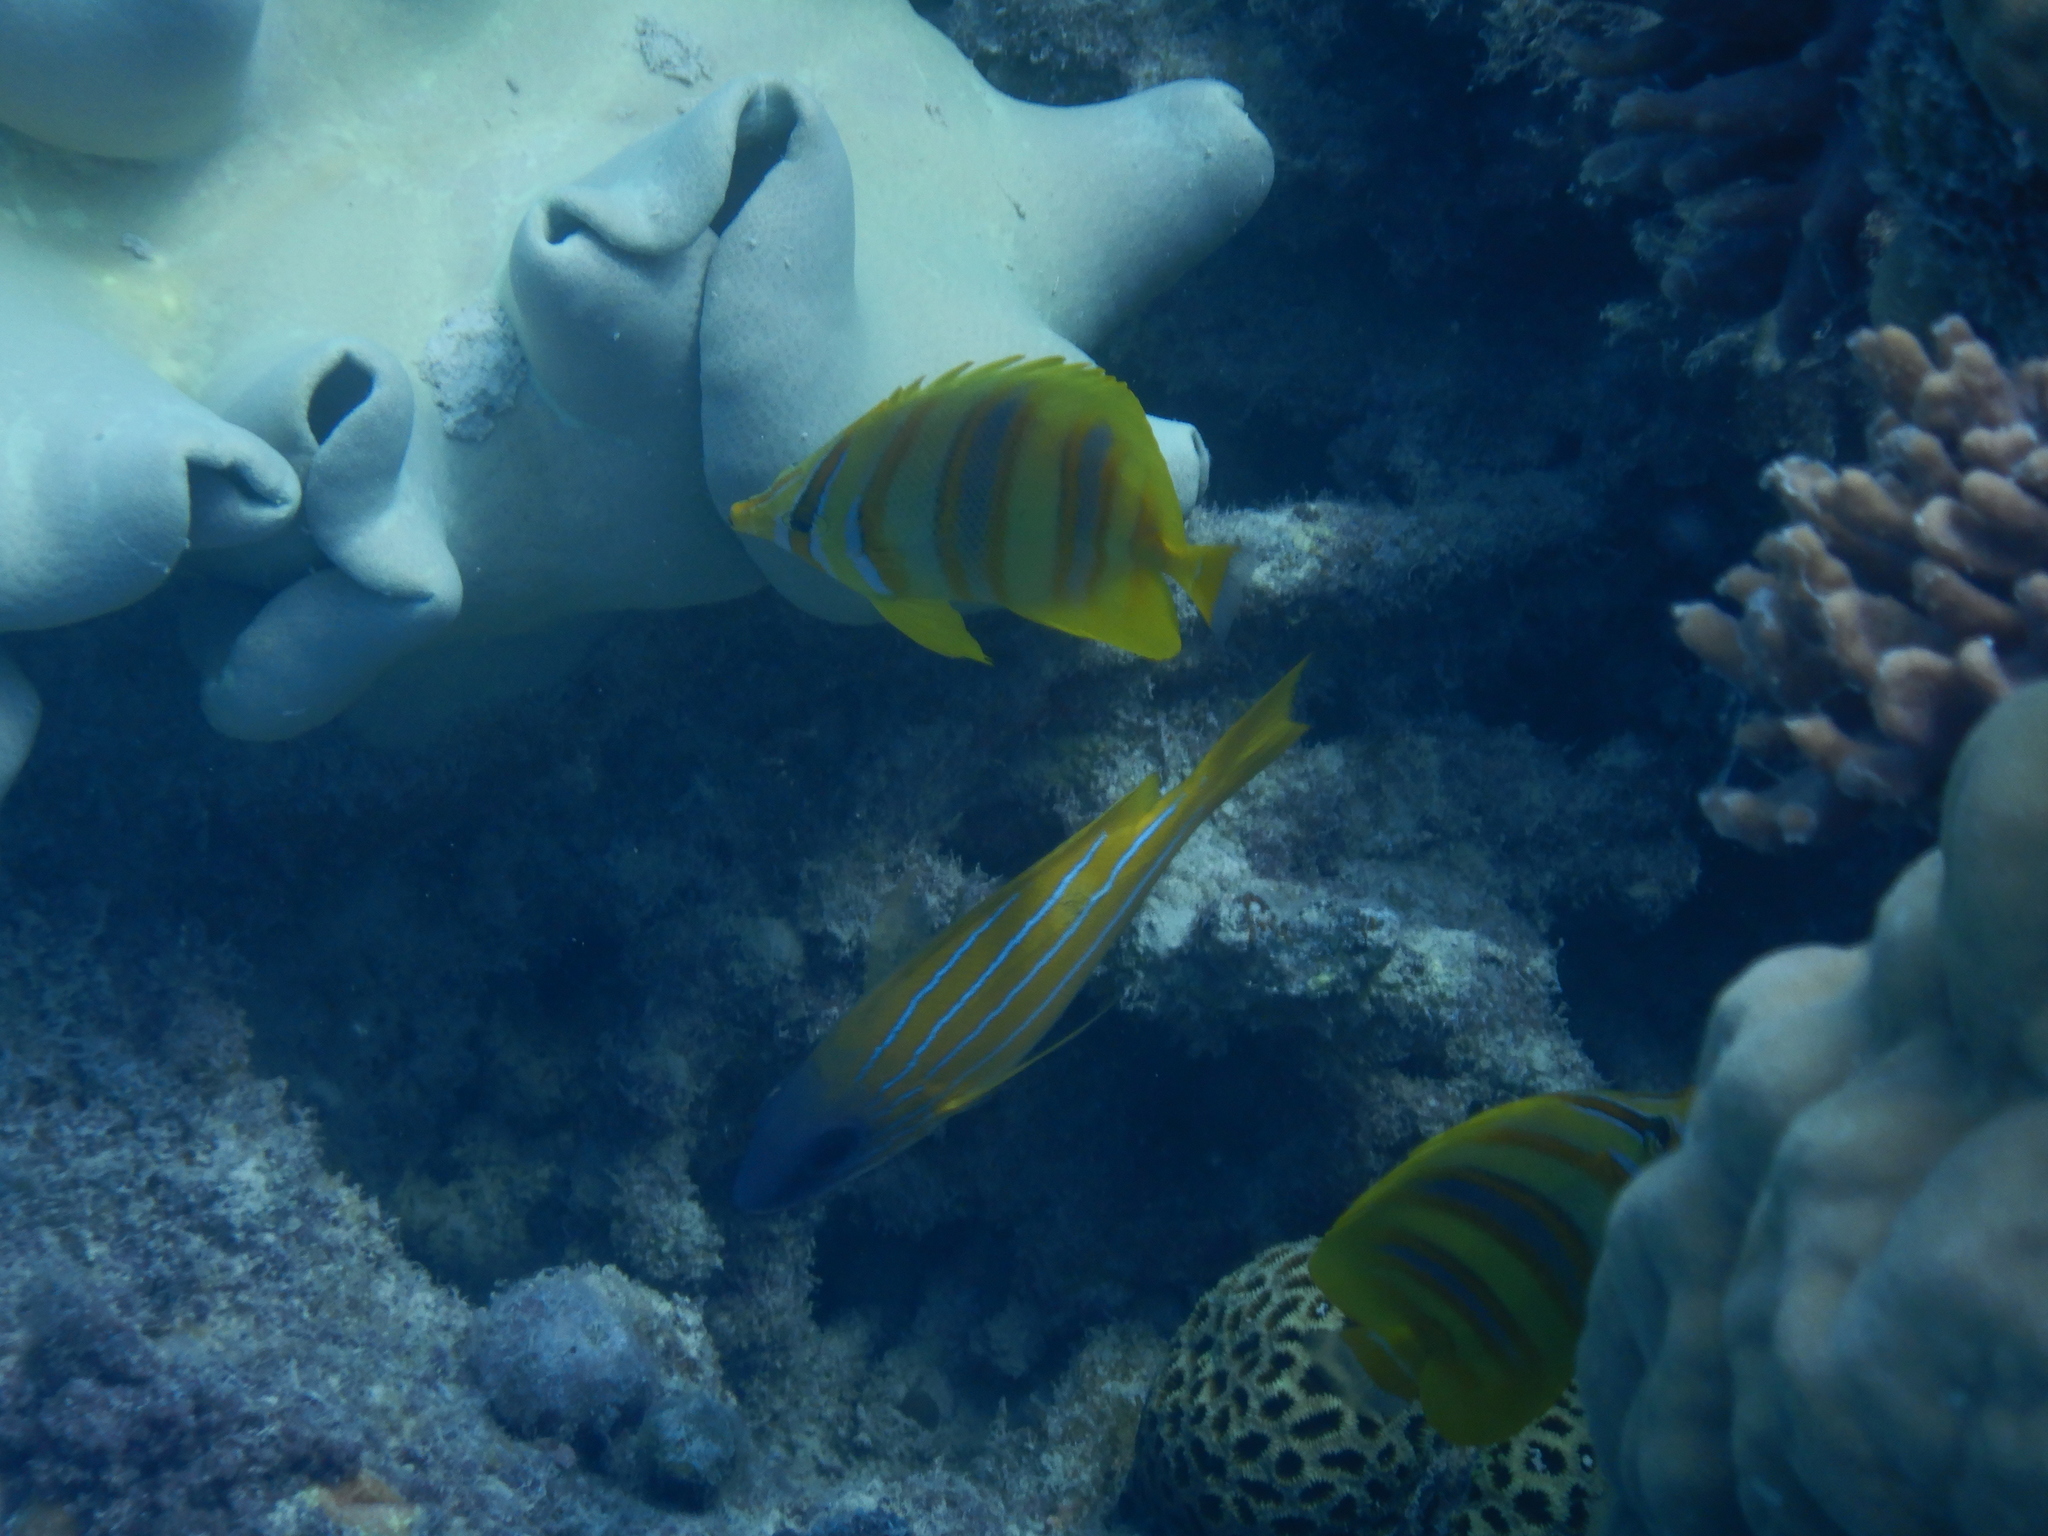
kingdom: Animalia
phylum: Chordata
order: Perciformes
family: Chaetodontidae
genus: Chaetodon
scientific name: Chaetodon rainfordi
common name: Rainford's butterflyfish
